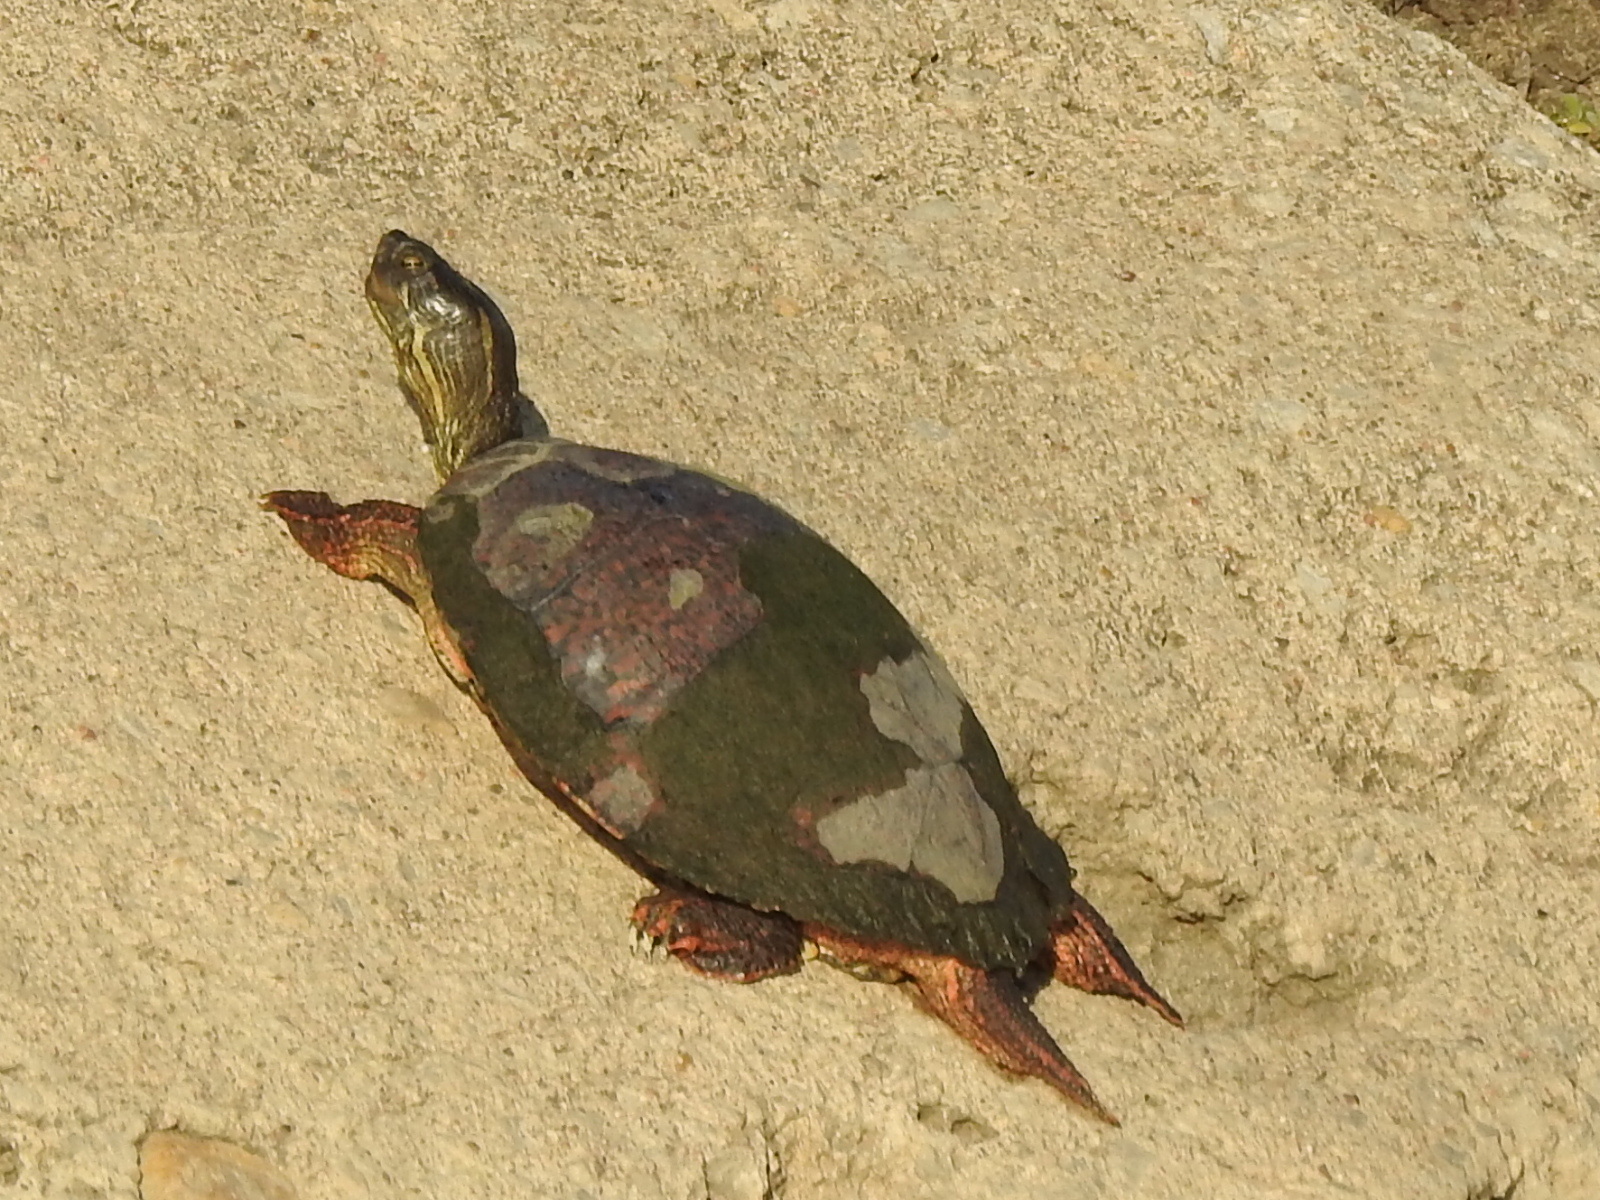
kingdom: Animalia
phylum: Chordata
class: Testudines
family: Emydidae
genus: Pseudemys
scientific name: Pseudemys concinna
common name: Eastern river cooter
